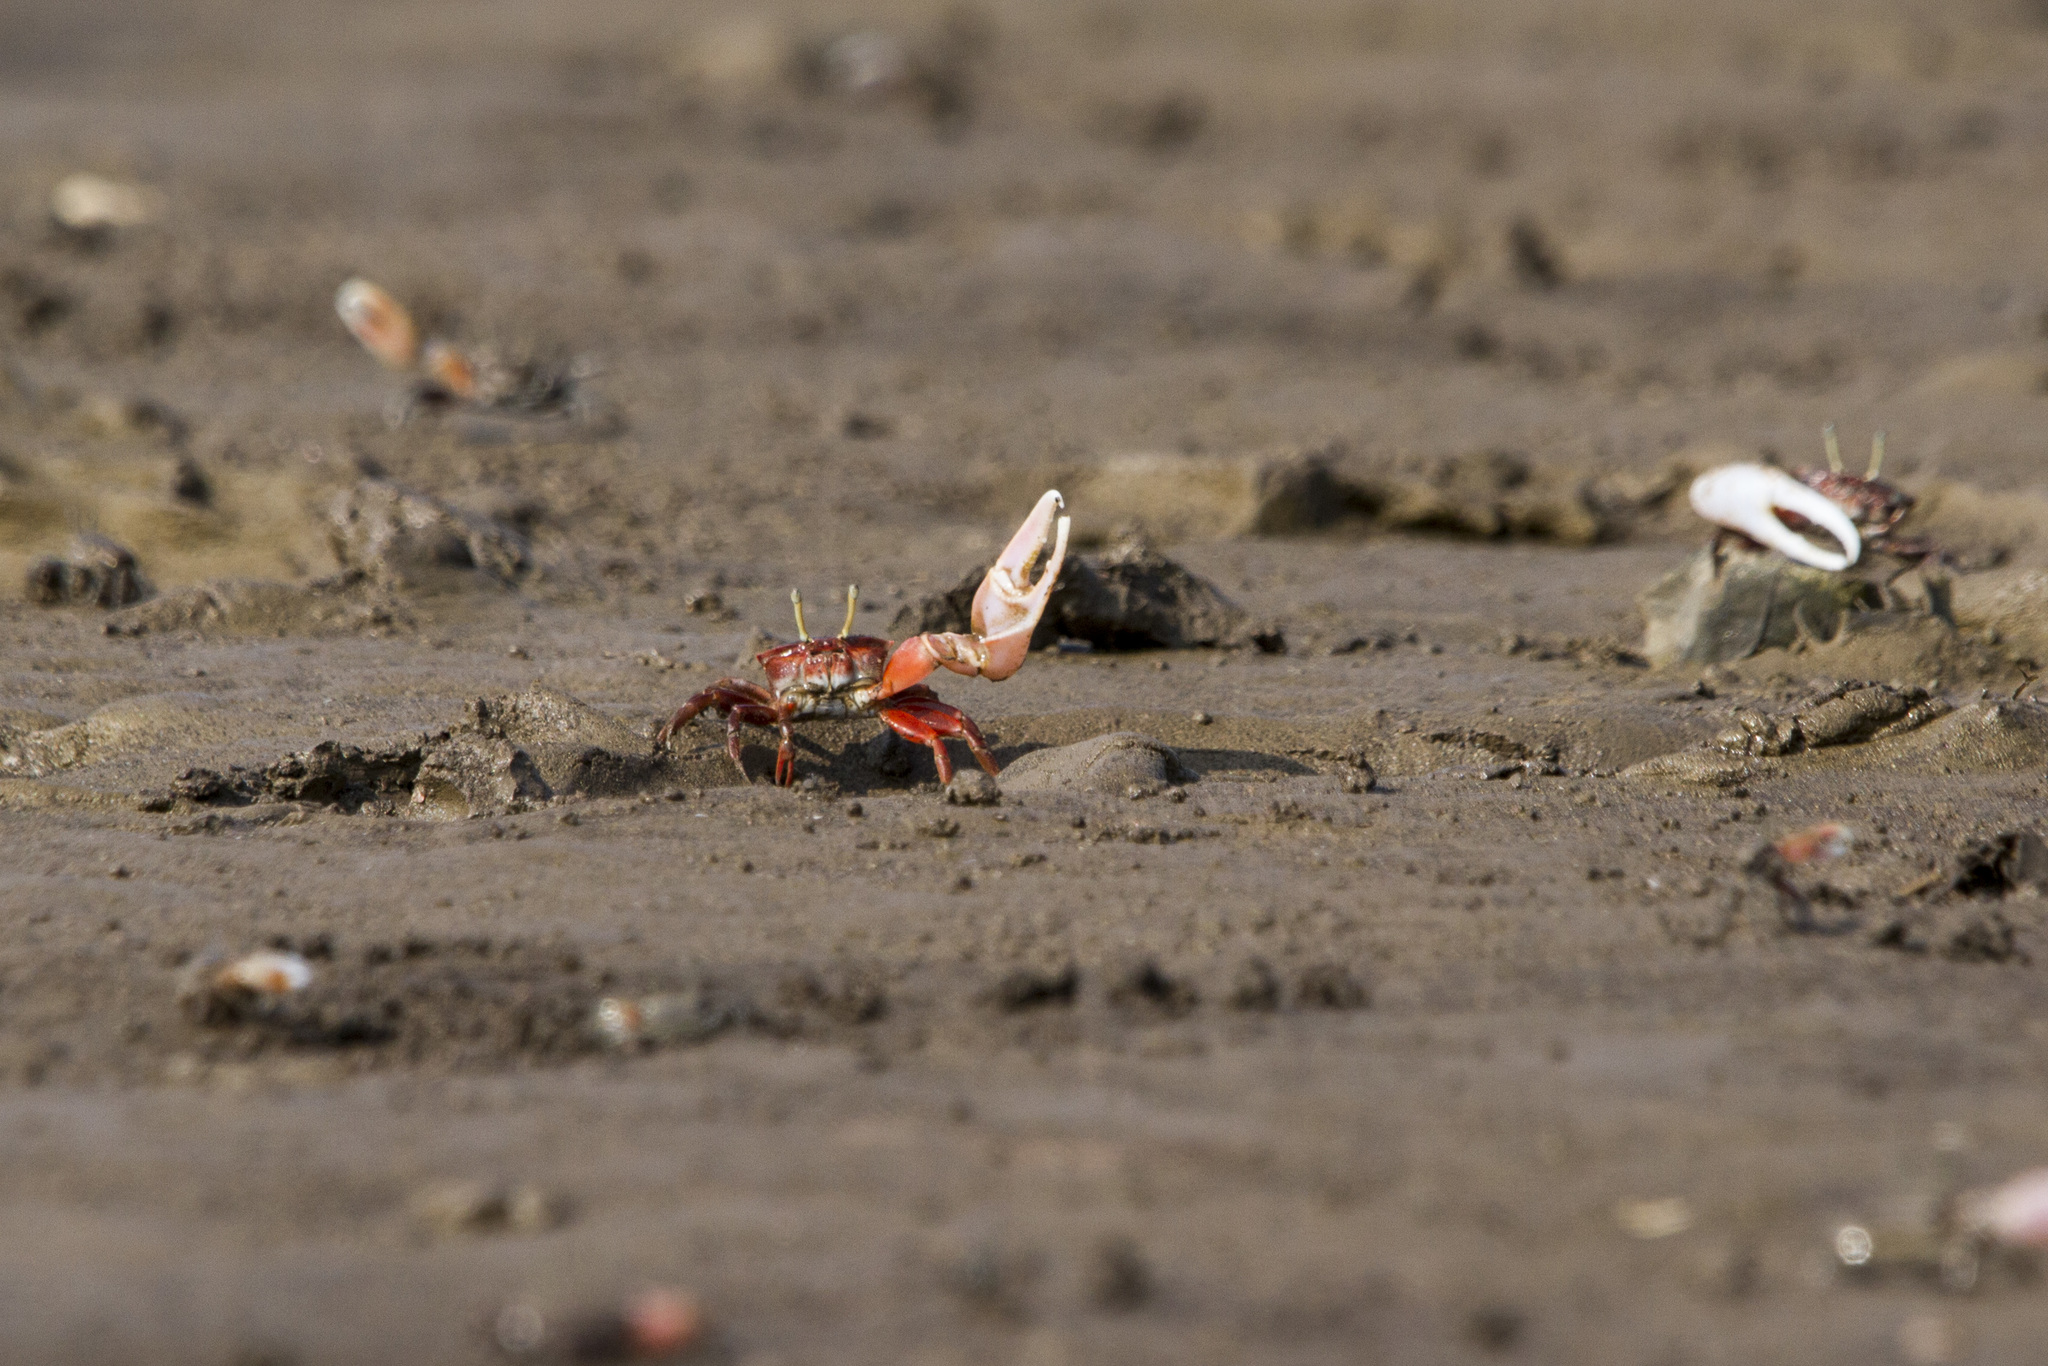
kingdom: Animalia
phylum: Arthropoda
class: Malacostraca
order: Decapoda
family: Ocypodidae
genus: Austruca
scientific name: Austruca annulipes
